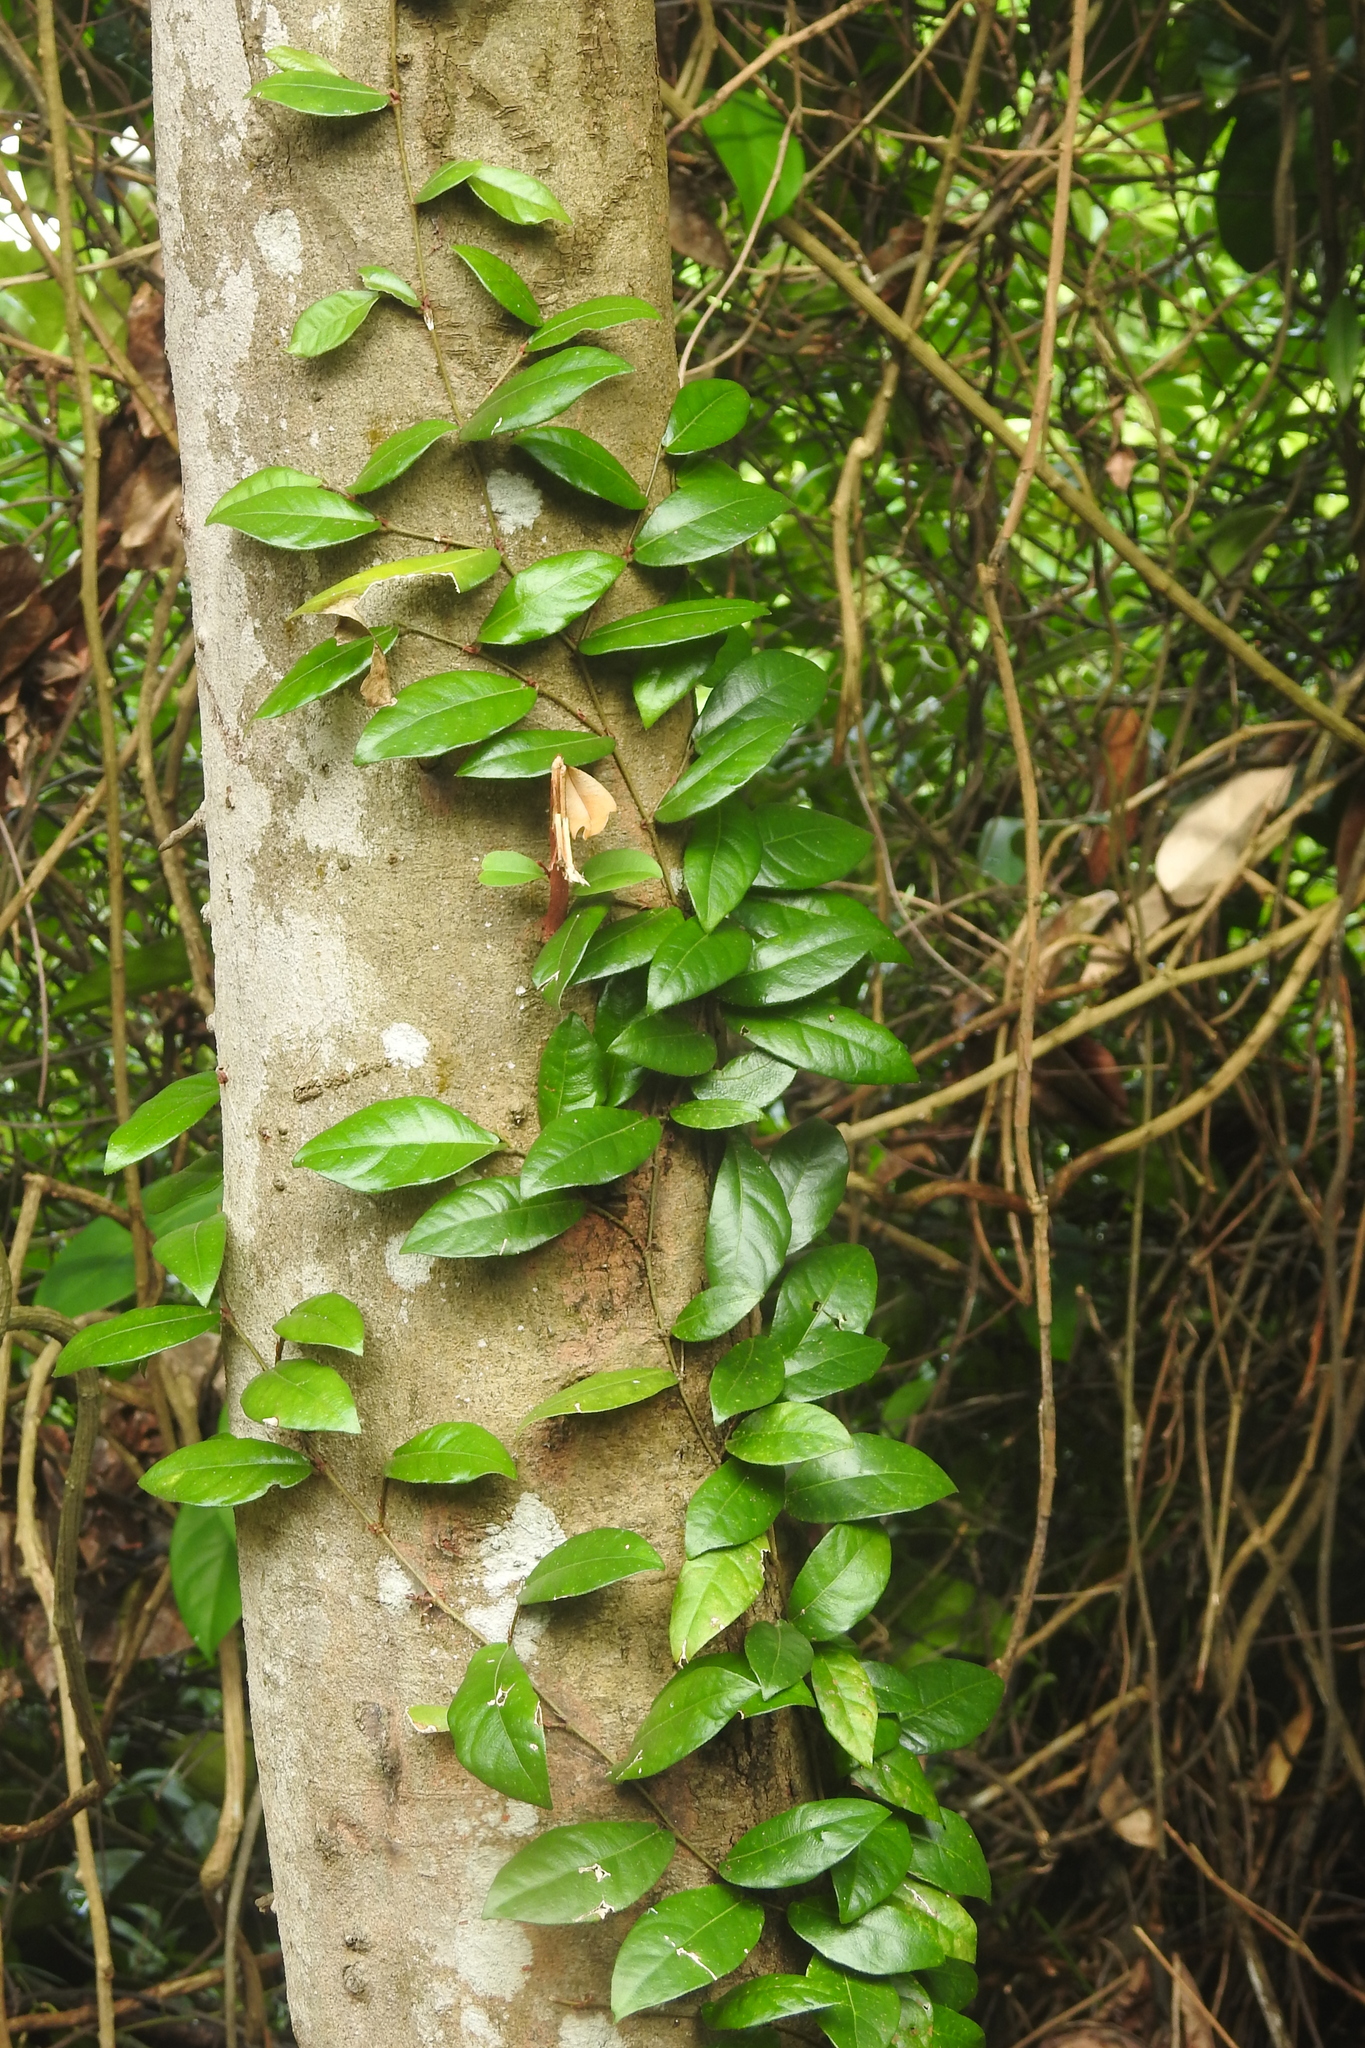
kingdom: Plantae
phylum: Tracheophyta
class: Magnoliopsida
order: Rosales
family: Moraceae
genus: Ficus
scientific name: Ficus punctata
